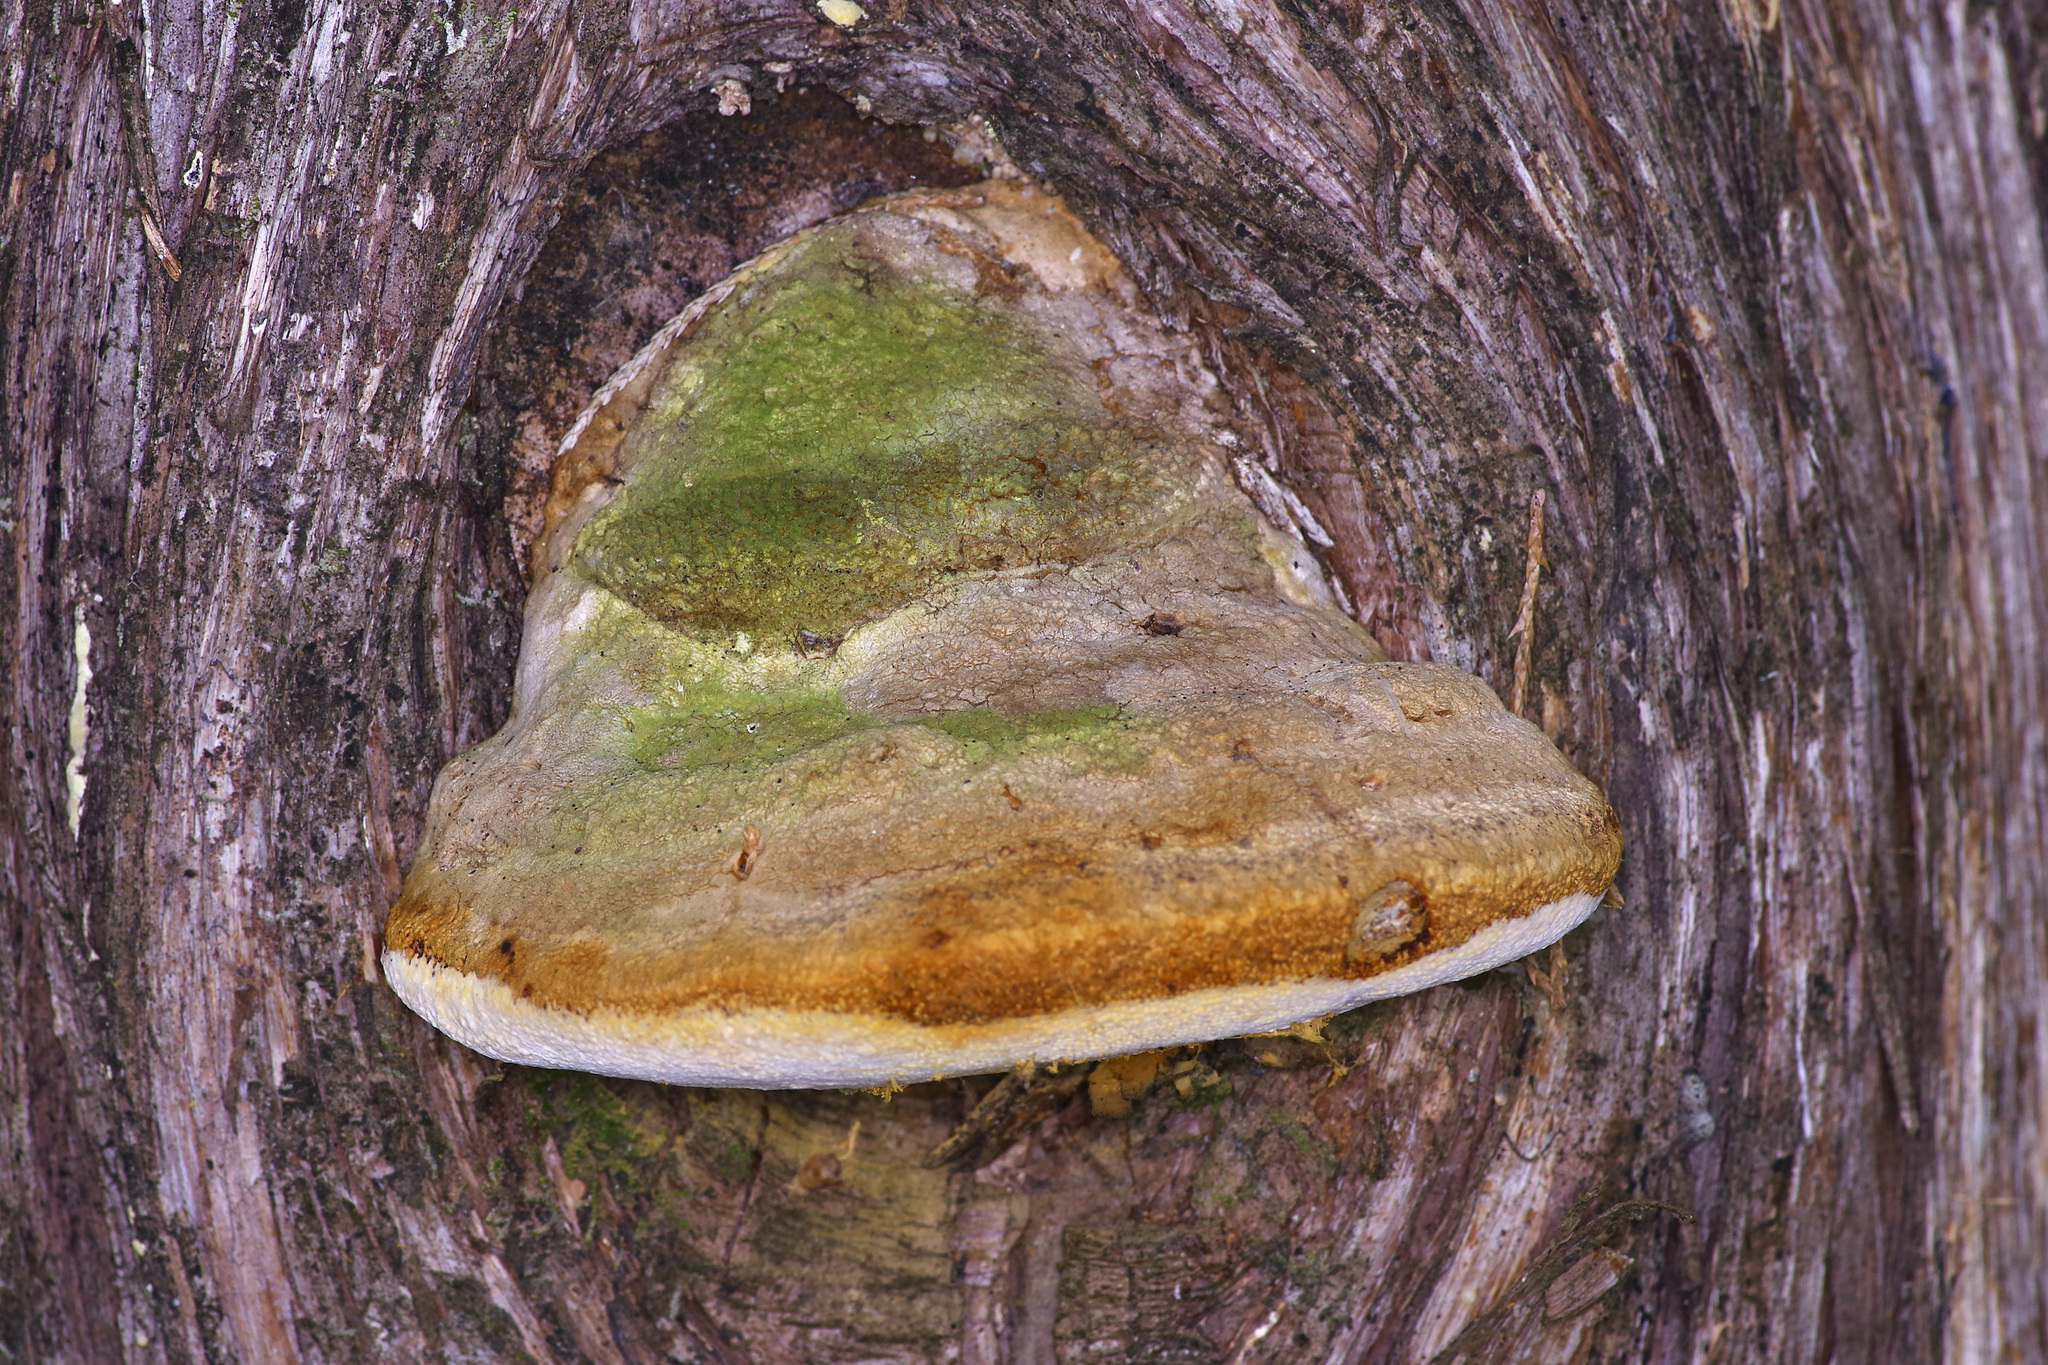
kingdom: Fungi
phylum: Basidiomycota
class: Agaricomycetes
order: Polyporales
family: Polyporaceae
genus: Pyrofomes
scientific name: Pyrofomes juniperinus
